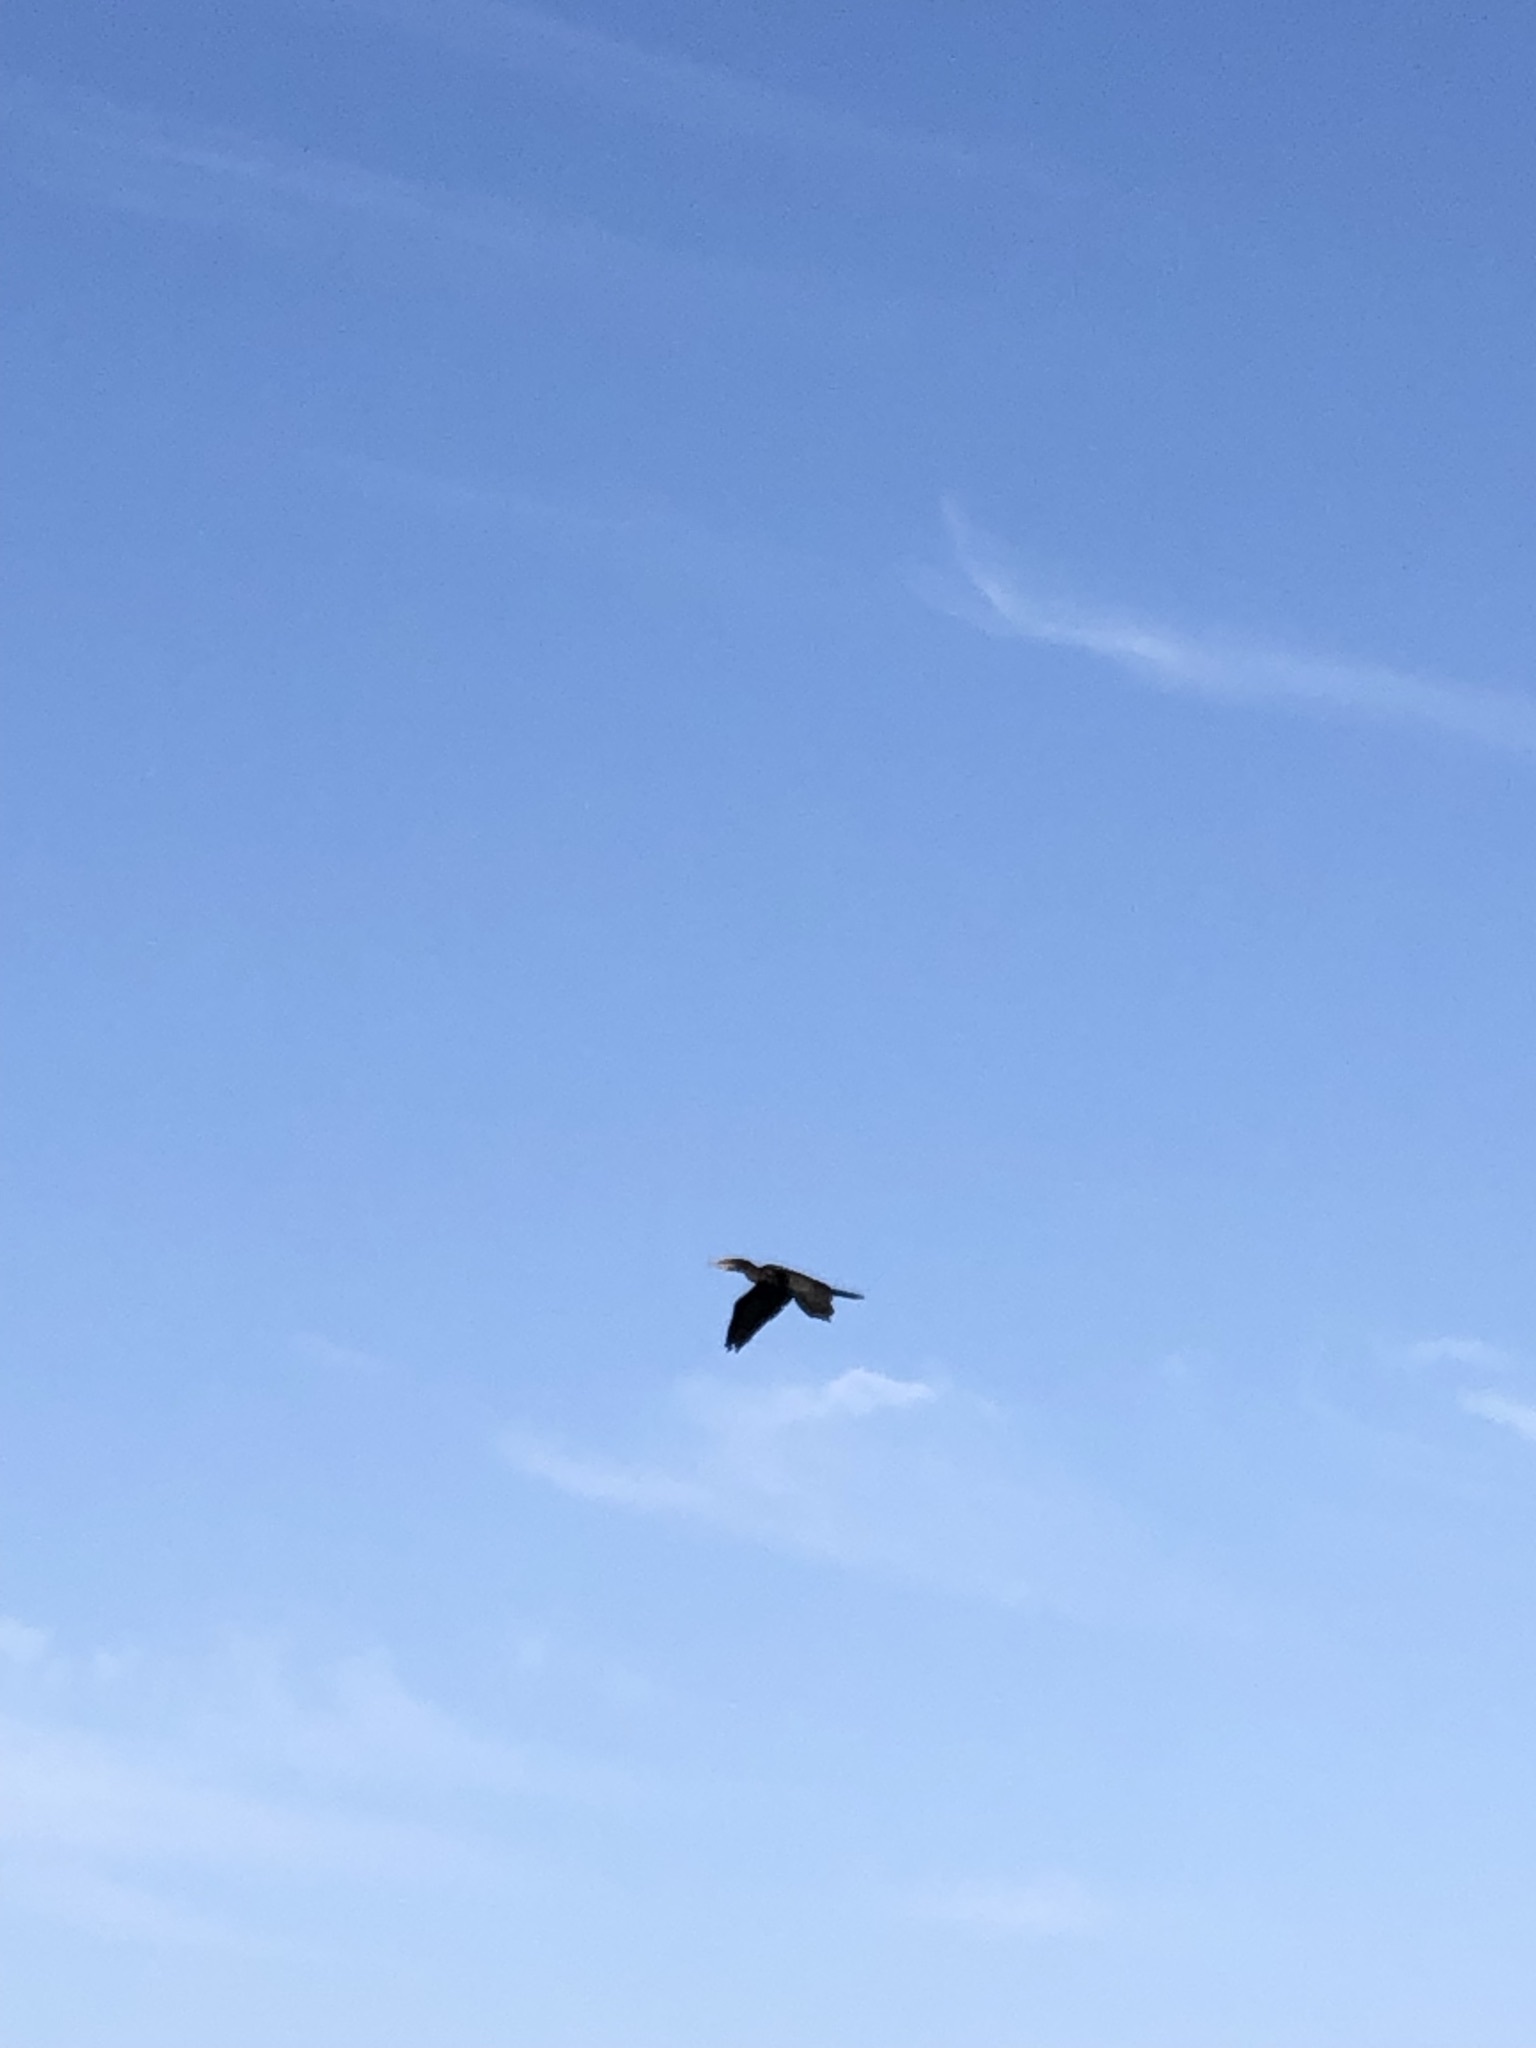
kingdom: Animalia
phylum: Chordata
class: Aves
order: Suliformes
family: Phalacrocoracidae
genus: Phalacrocorax
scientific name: Phalacrocorax brasilianus
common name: Neotropic cormorant
